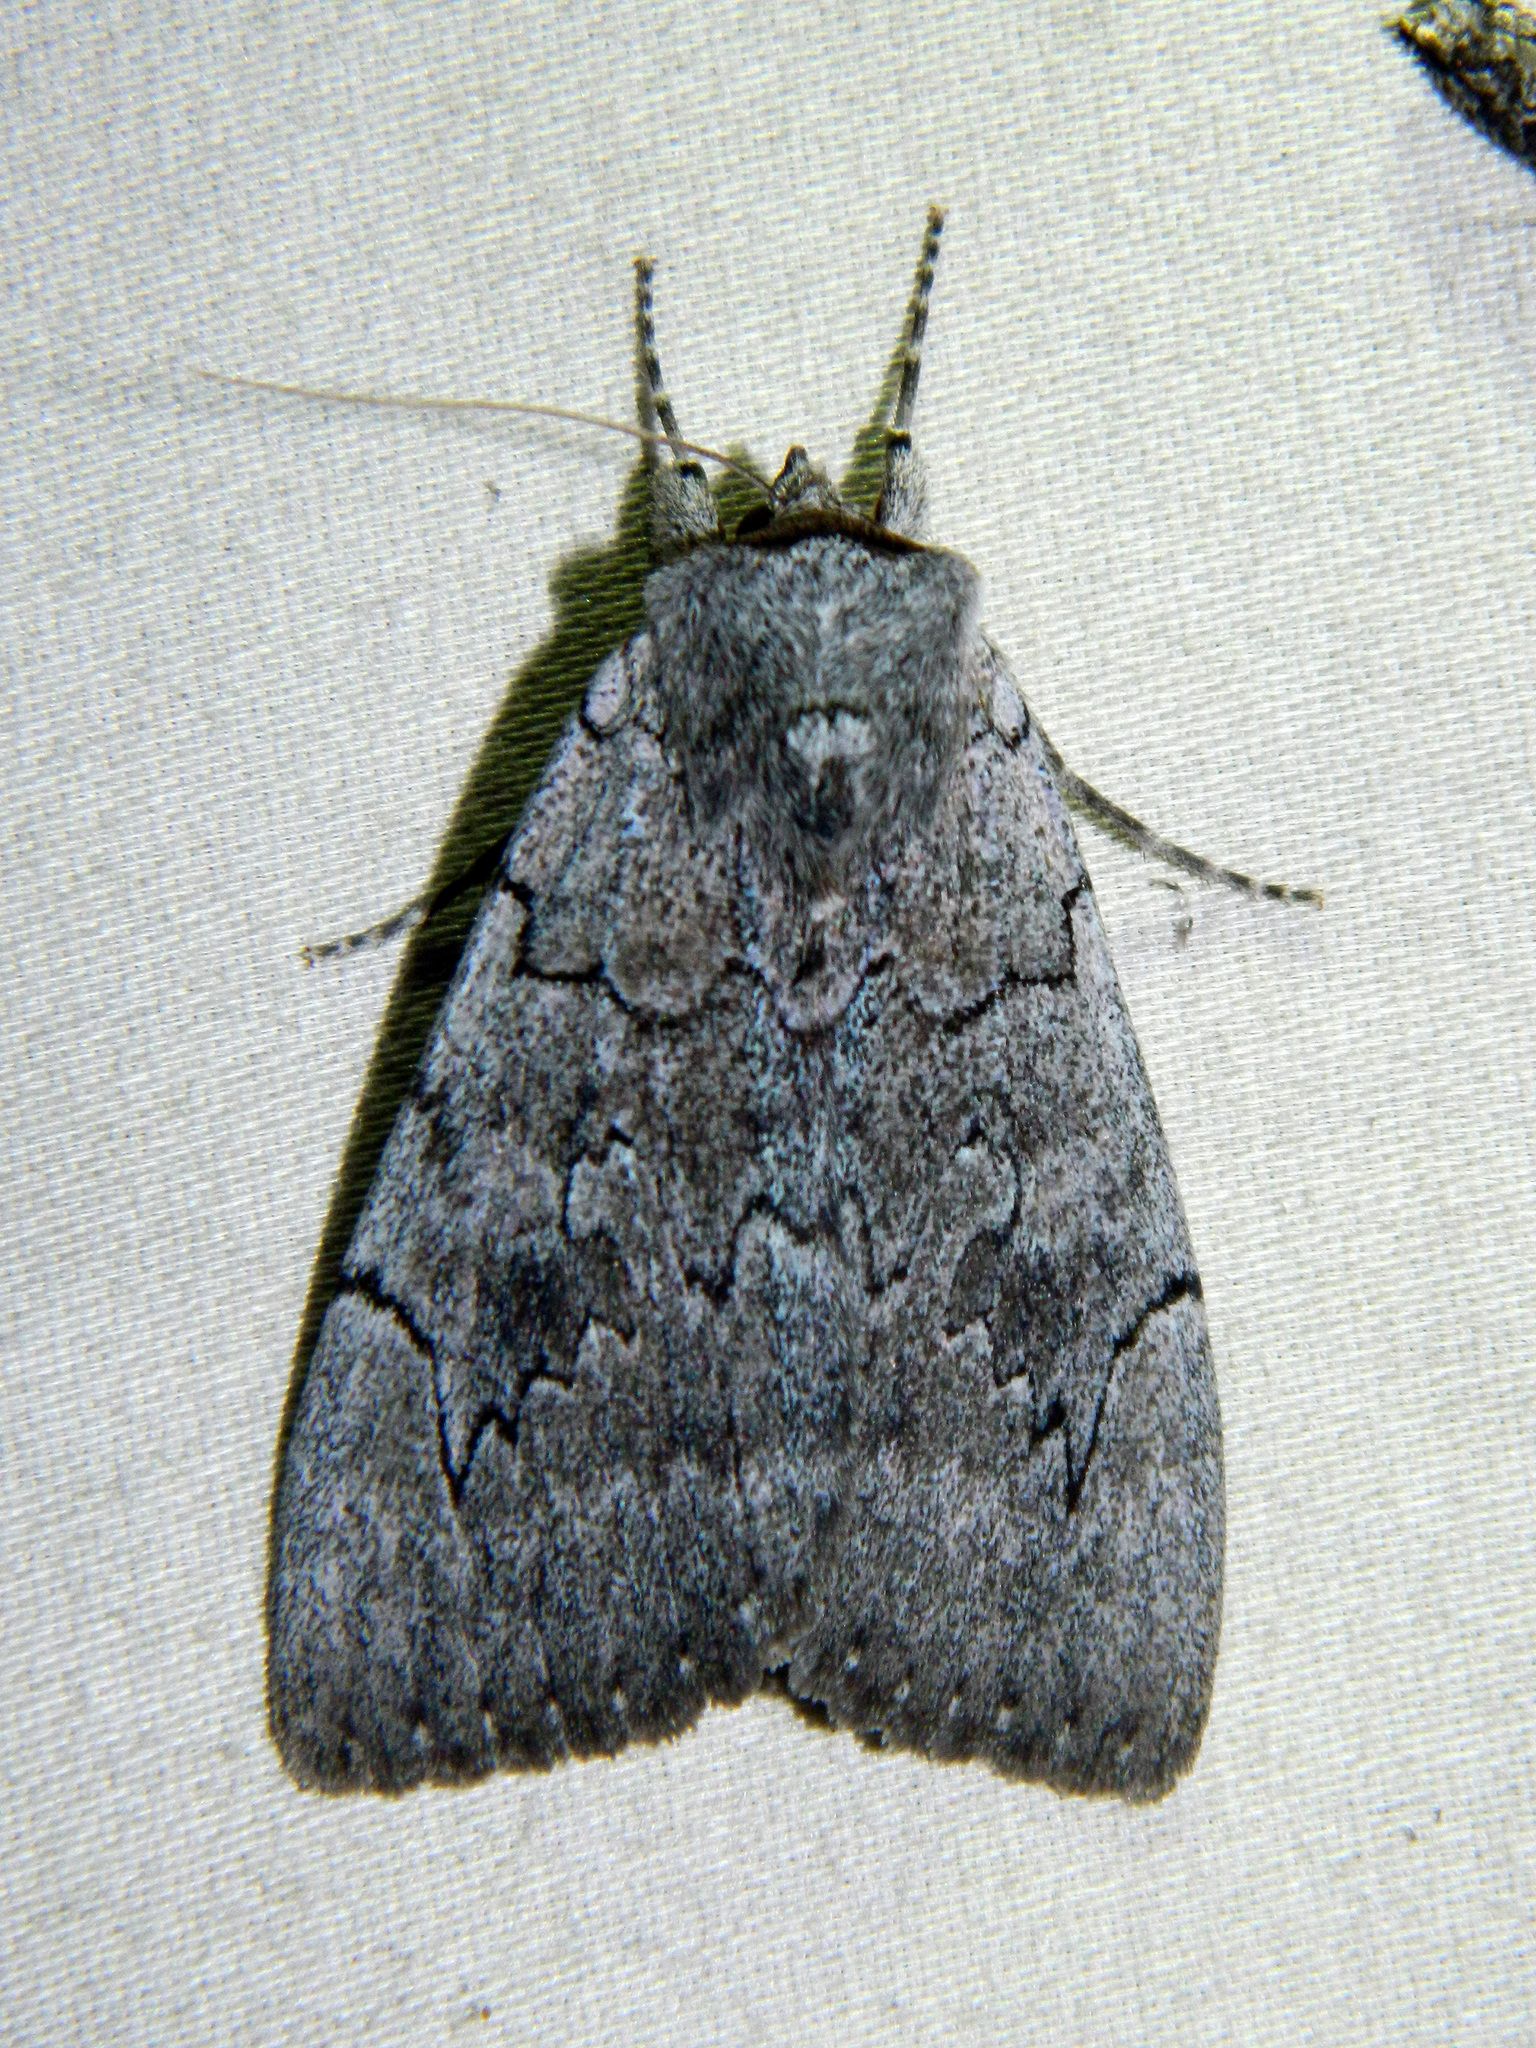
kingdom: Animalia
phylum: Arthropoda
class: Insecta
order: Lepidoptera
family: Erebidae
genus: Catocala
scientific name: Catocala concumbens
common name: Pink underwing
